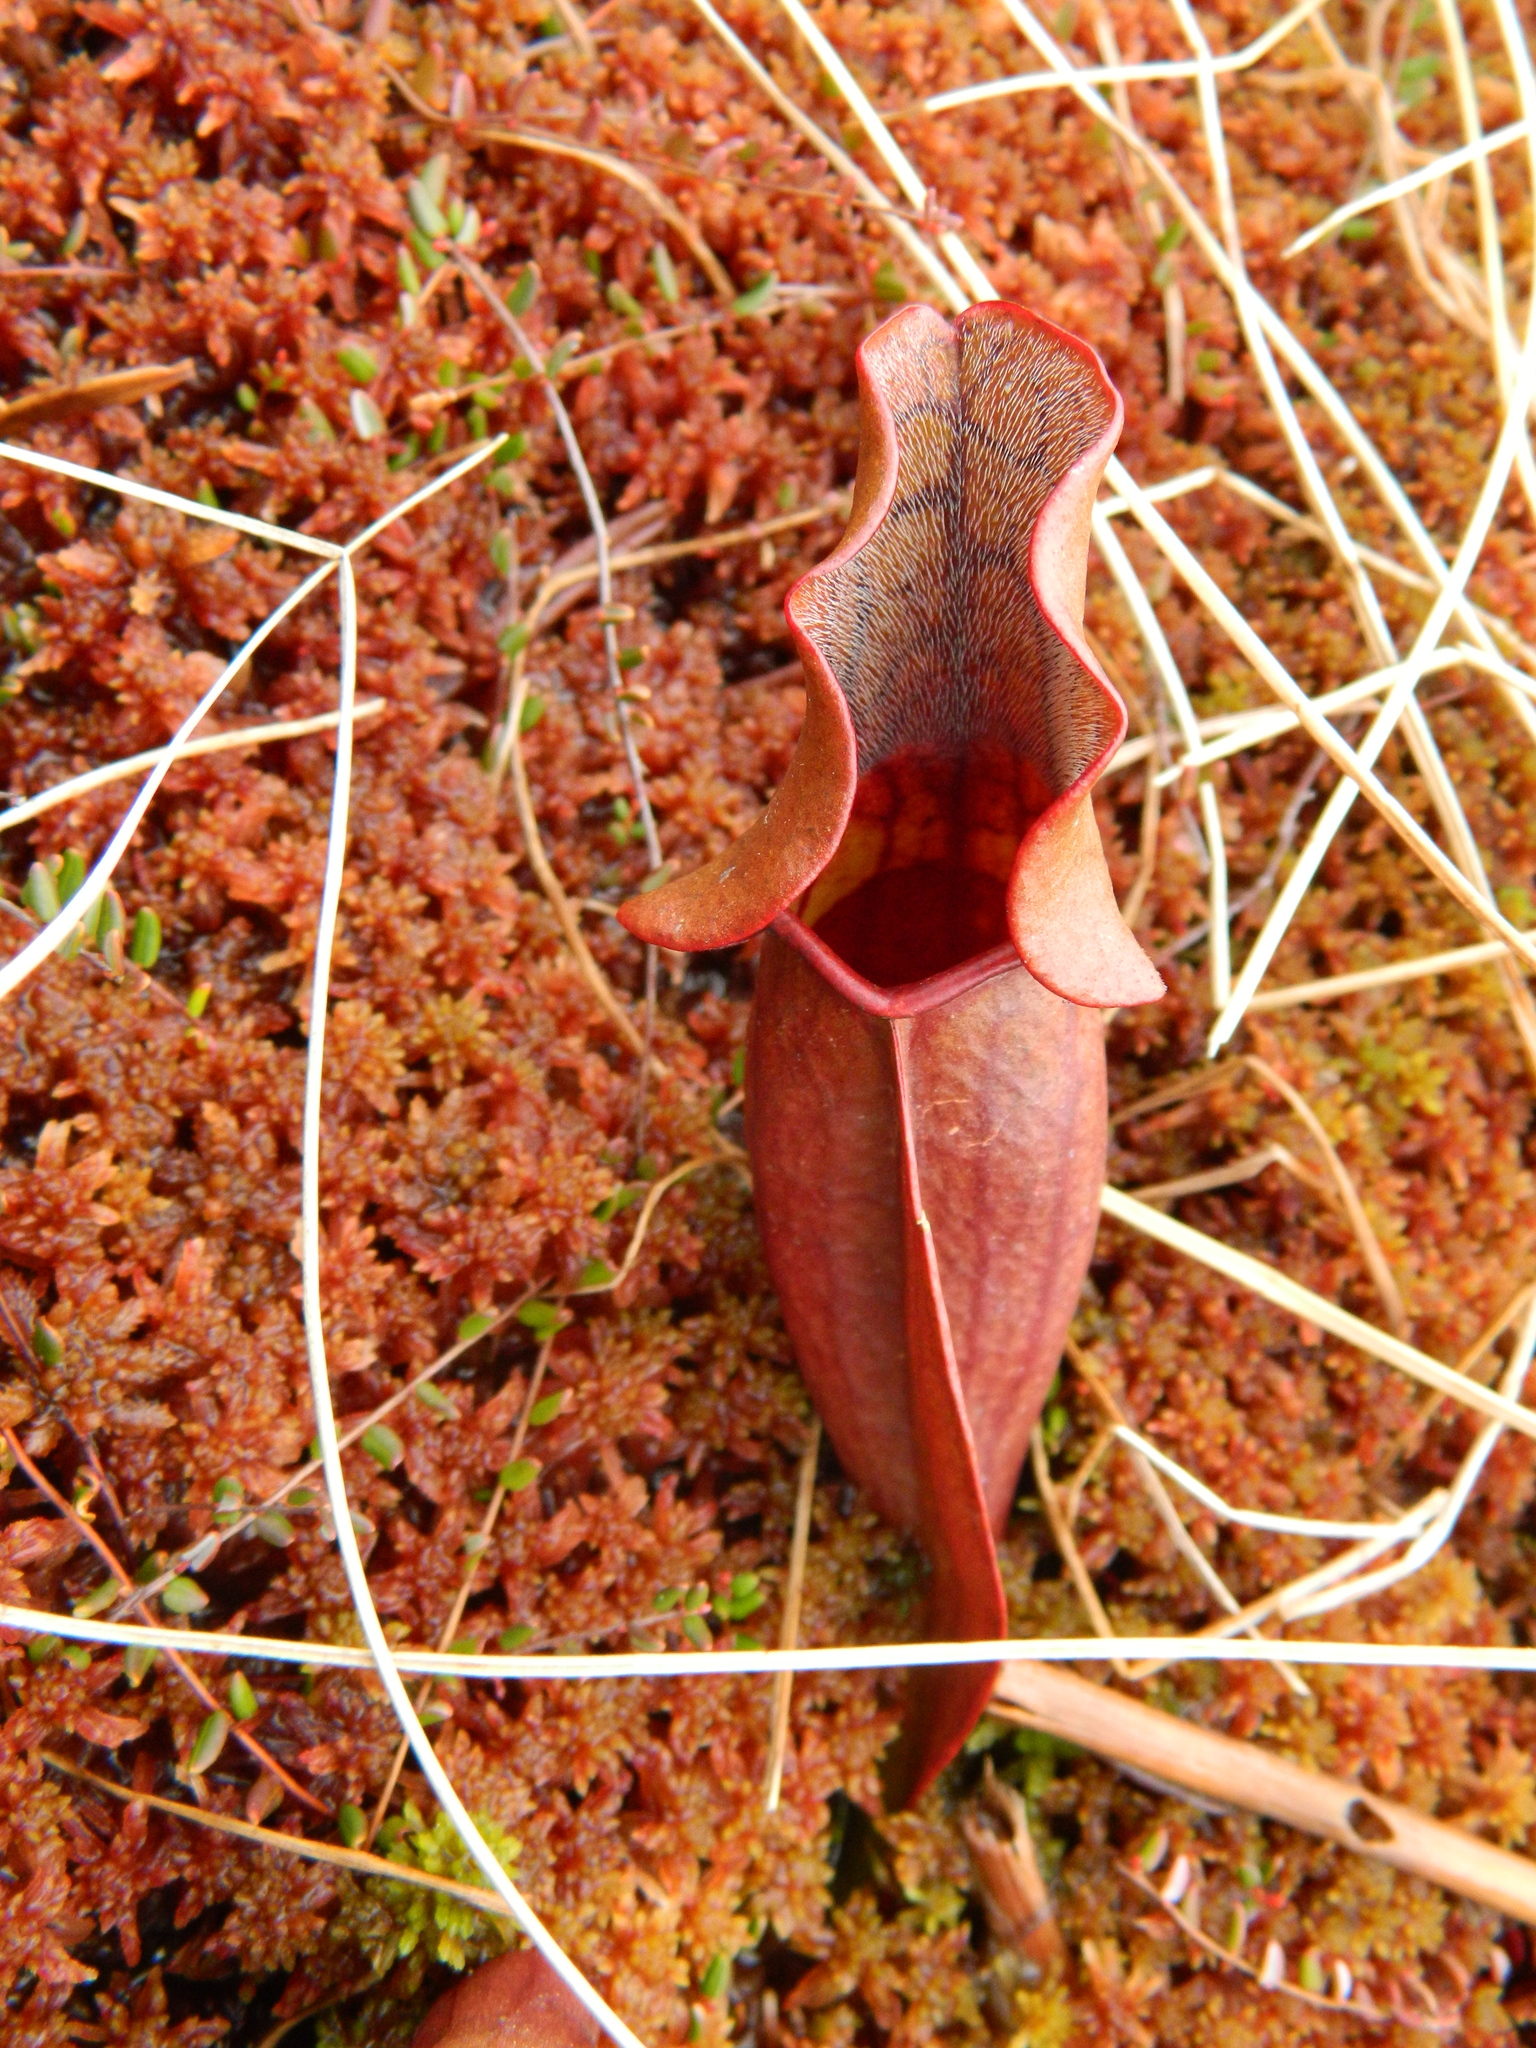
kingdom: Plantae
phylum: Tracheophyta
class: Magnoliopsida
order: Ericales
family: Sarraceniaceae
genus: Sarracenia
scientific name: Sarracenia purpurea
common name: Pitcherplant
